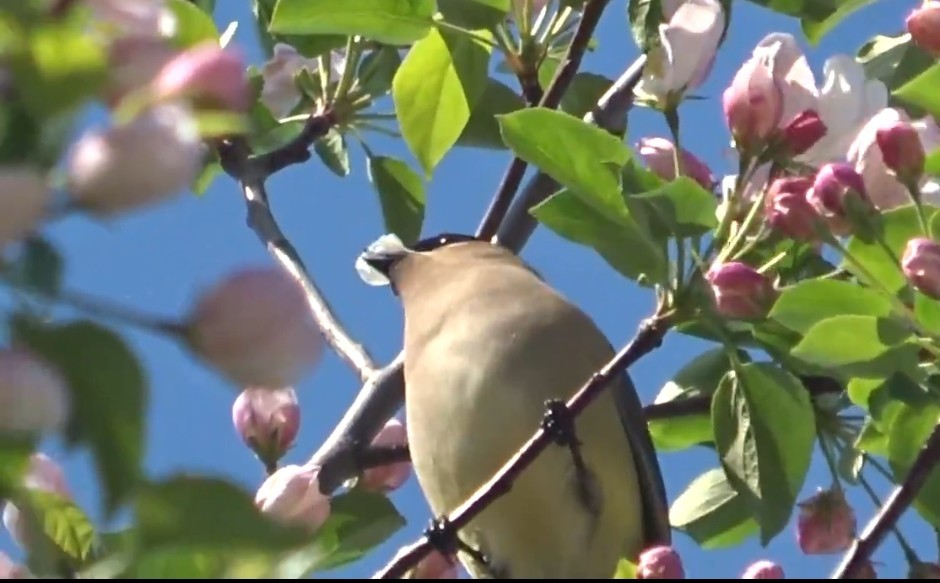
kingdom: Animalia
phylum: Chordata
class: Aves
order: Passeriformes
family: Bombycillidae
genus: Bombycilla
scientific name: Bombycilla cedrorum
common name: Cedar waxwing
